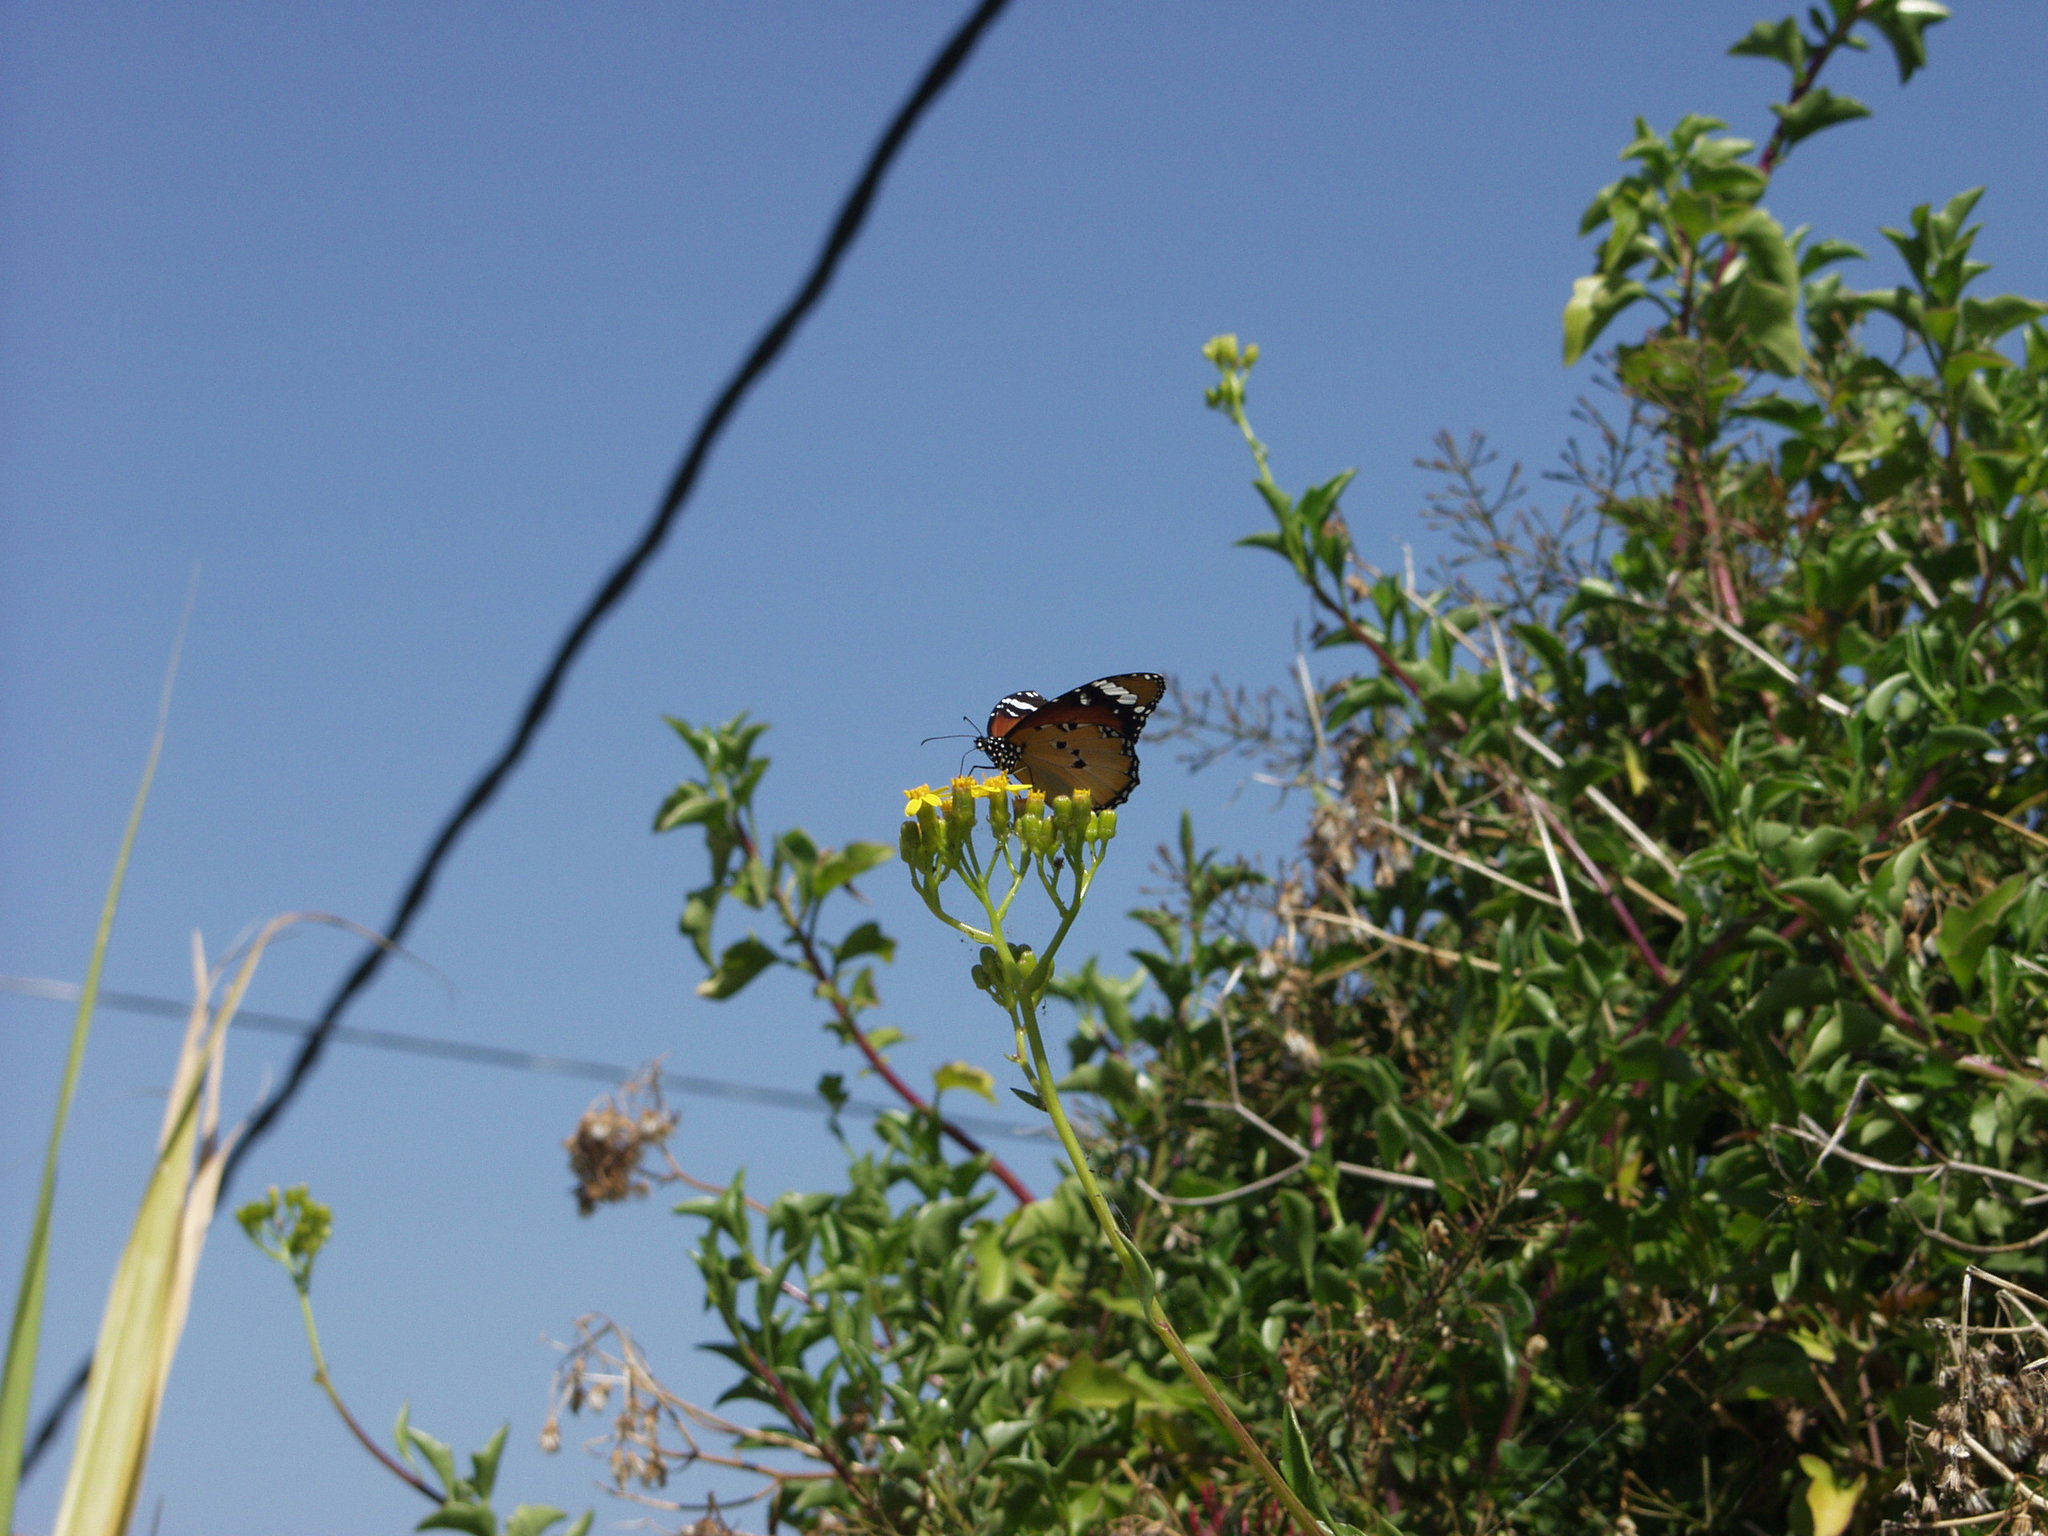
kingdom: Animalia
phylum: Arthropoda
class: Insecta
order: Lepidoptera
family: Nymphalidae
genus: Danaus
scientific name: Danaus chrysippus
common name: Plain tiger
